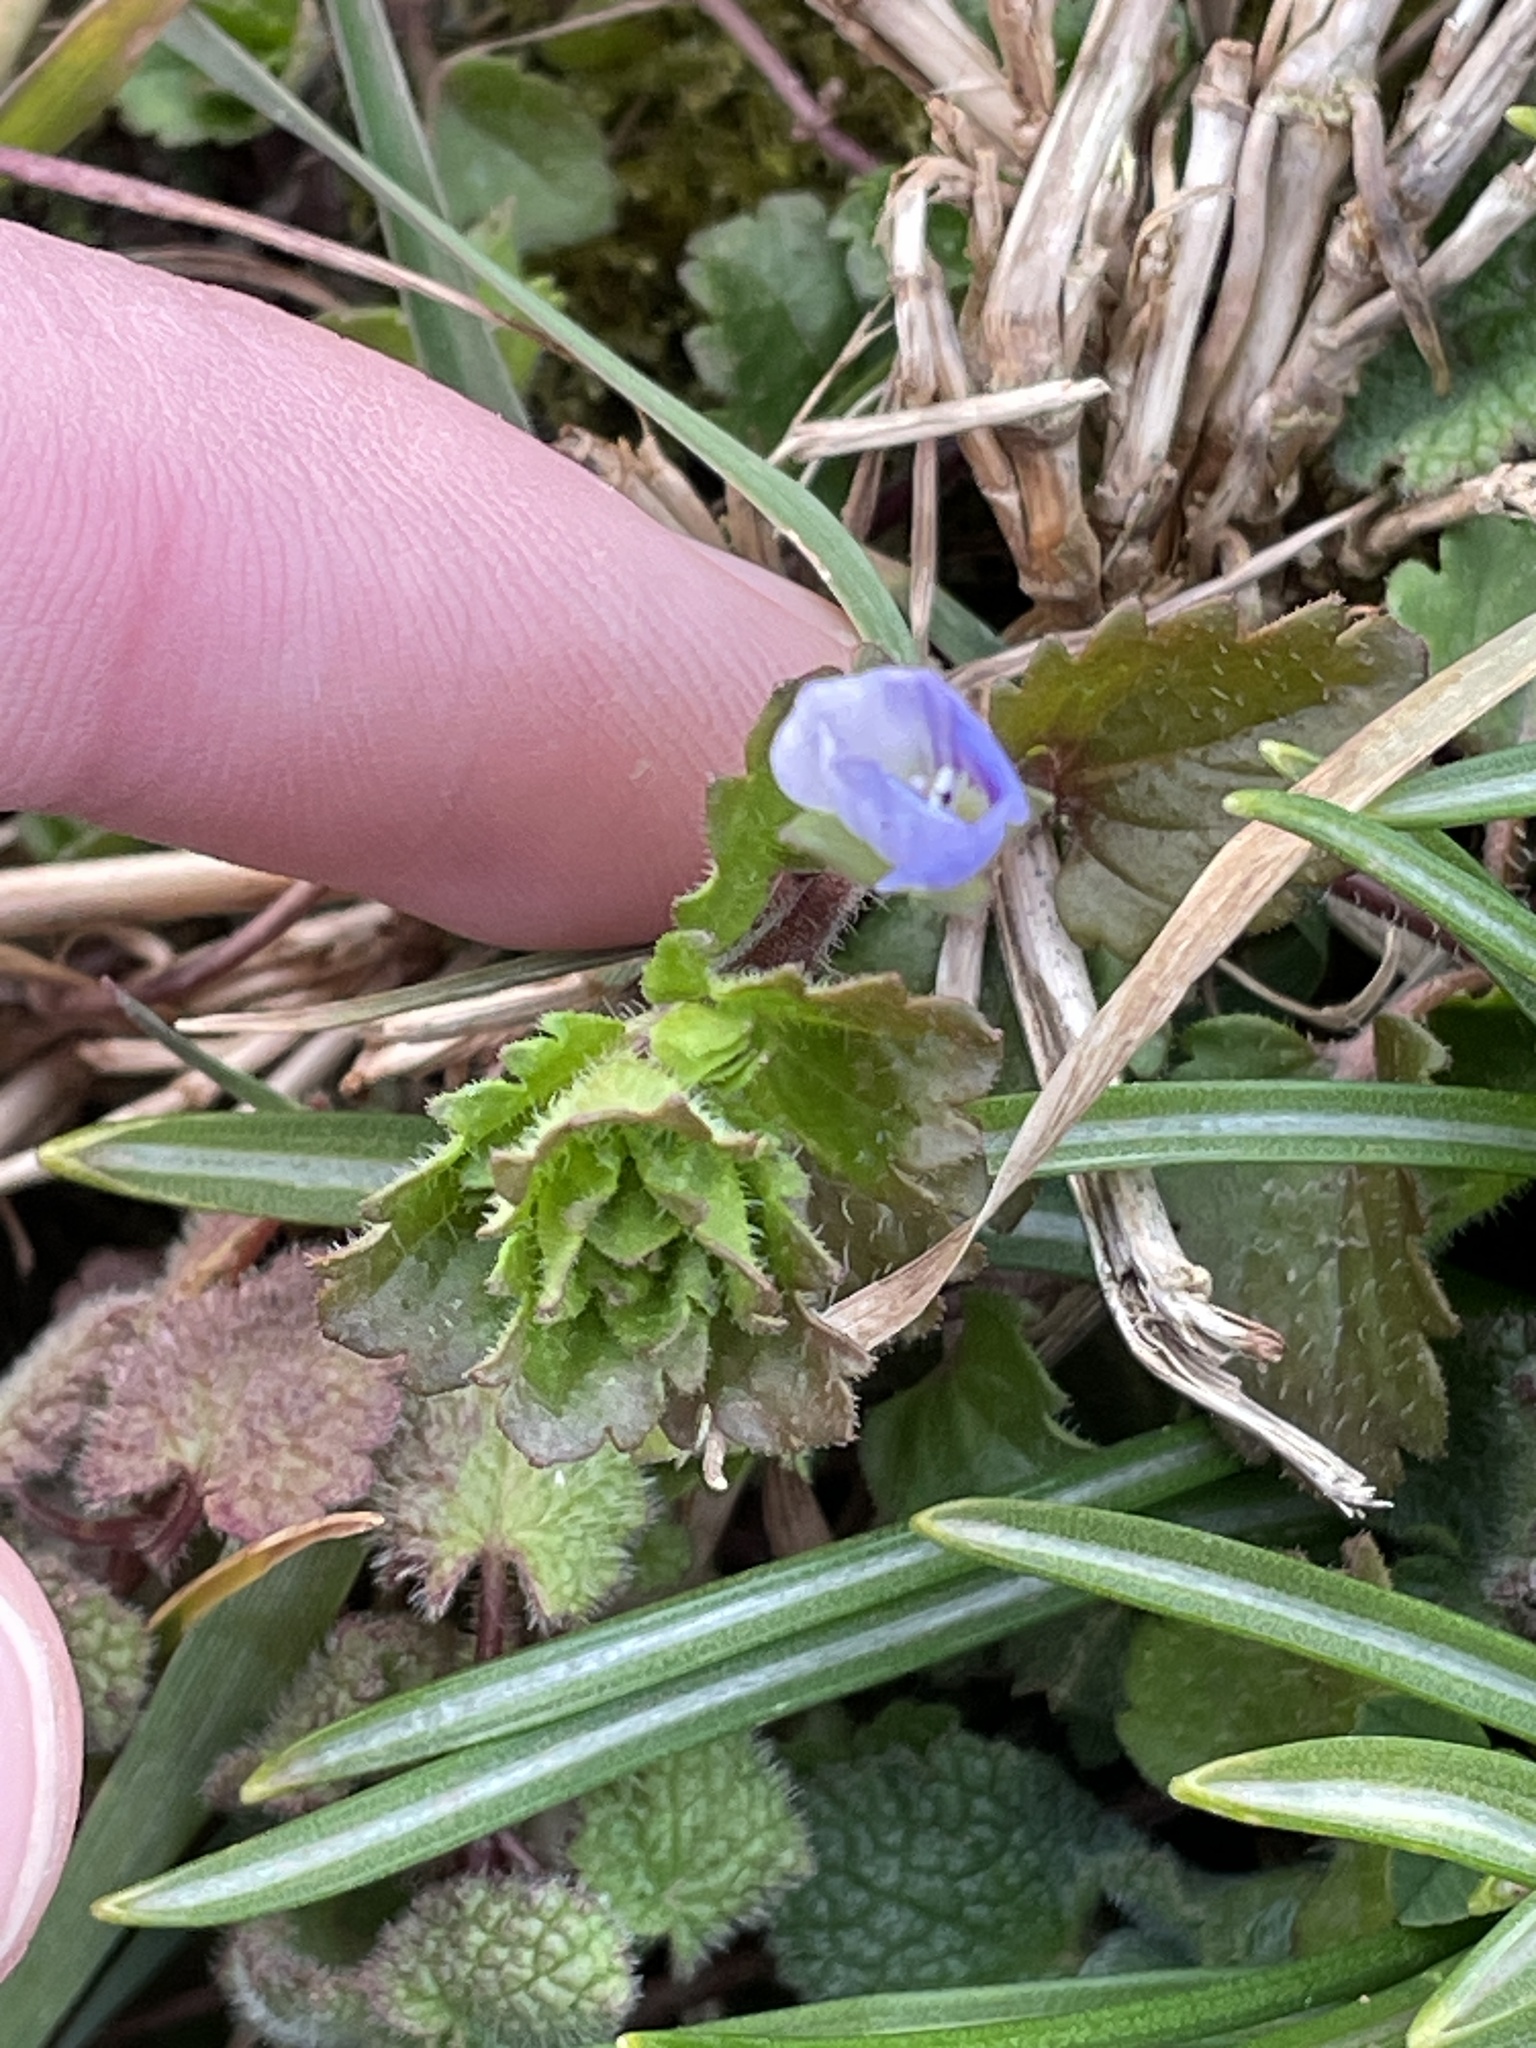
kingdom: Plantae
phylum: Tracheophyta
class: Magnoliopsida
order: Lamiales
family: Plantaginaceae
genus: Veronica
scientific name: Veronica persica
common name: Common field-speedwell
